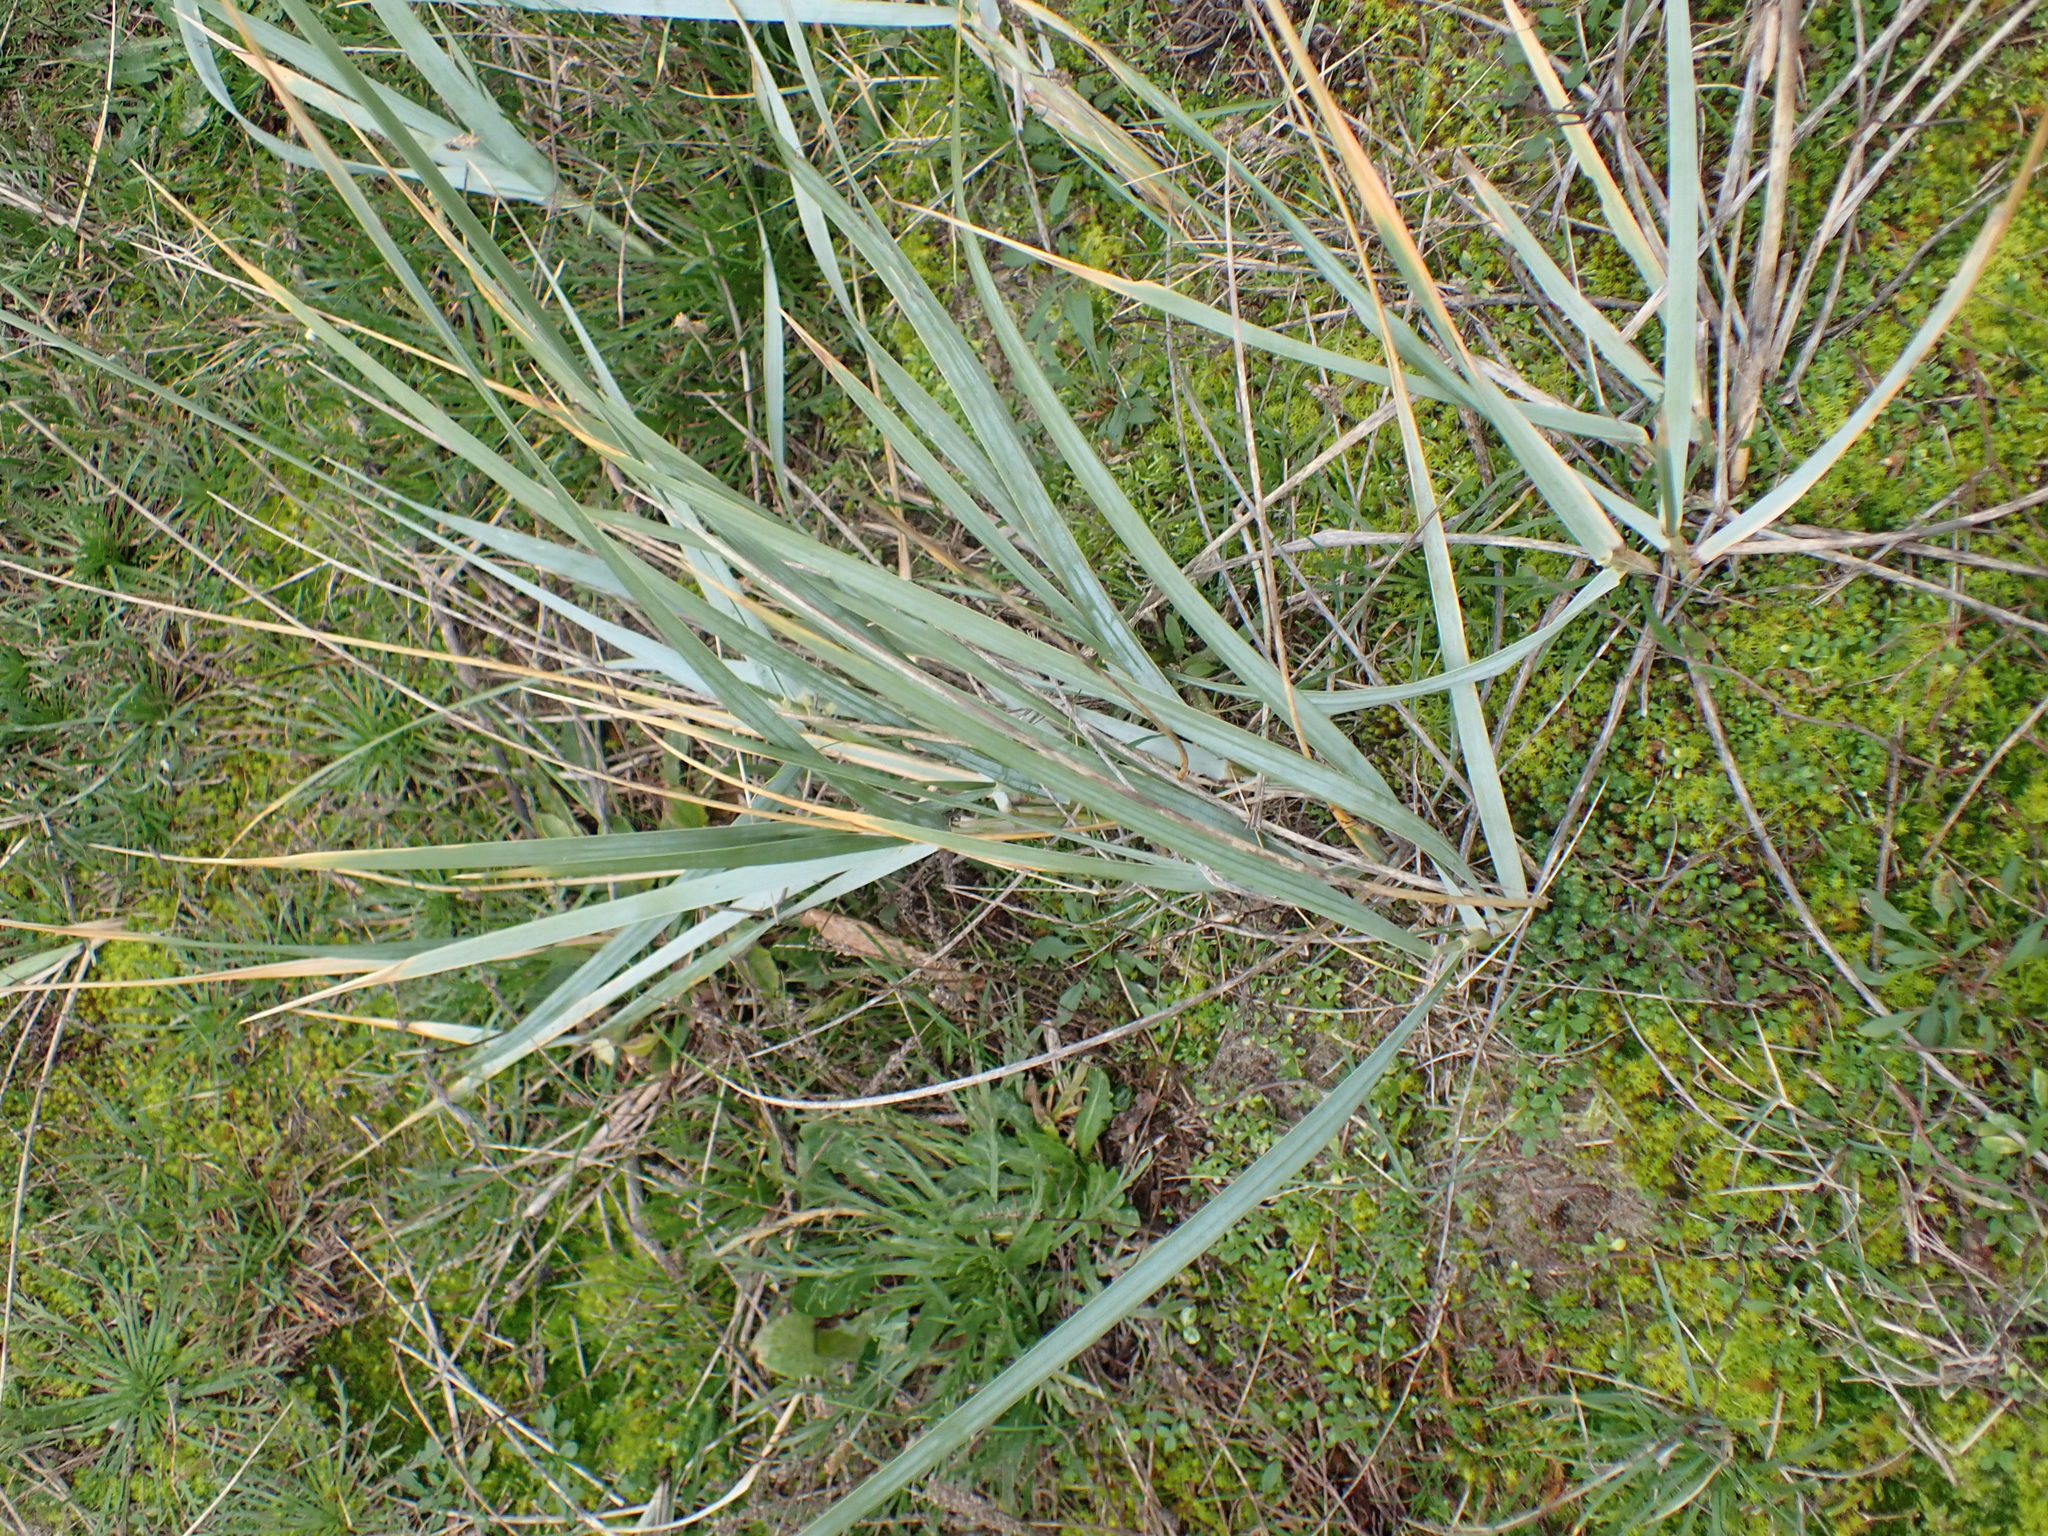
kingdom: Plantae
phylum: Tracheophyta
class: Liliopsida
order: Poales
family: Poaceae
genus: Leymus
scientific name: Leymus arenarius
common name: Lyme-grass
